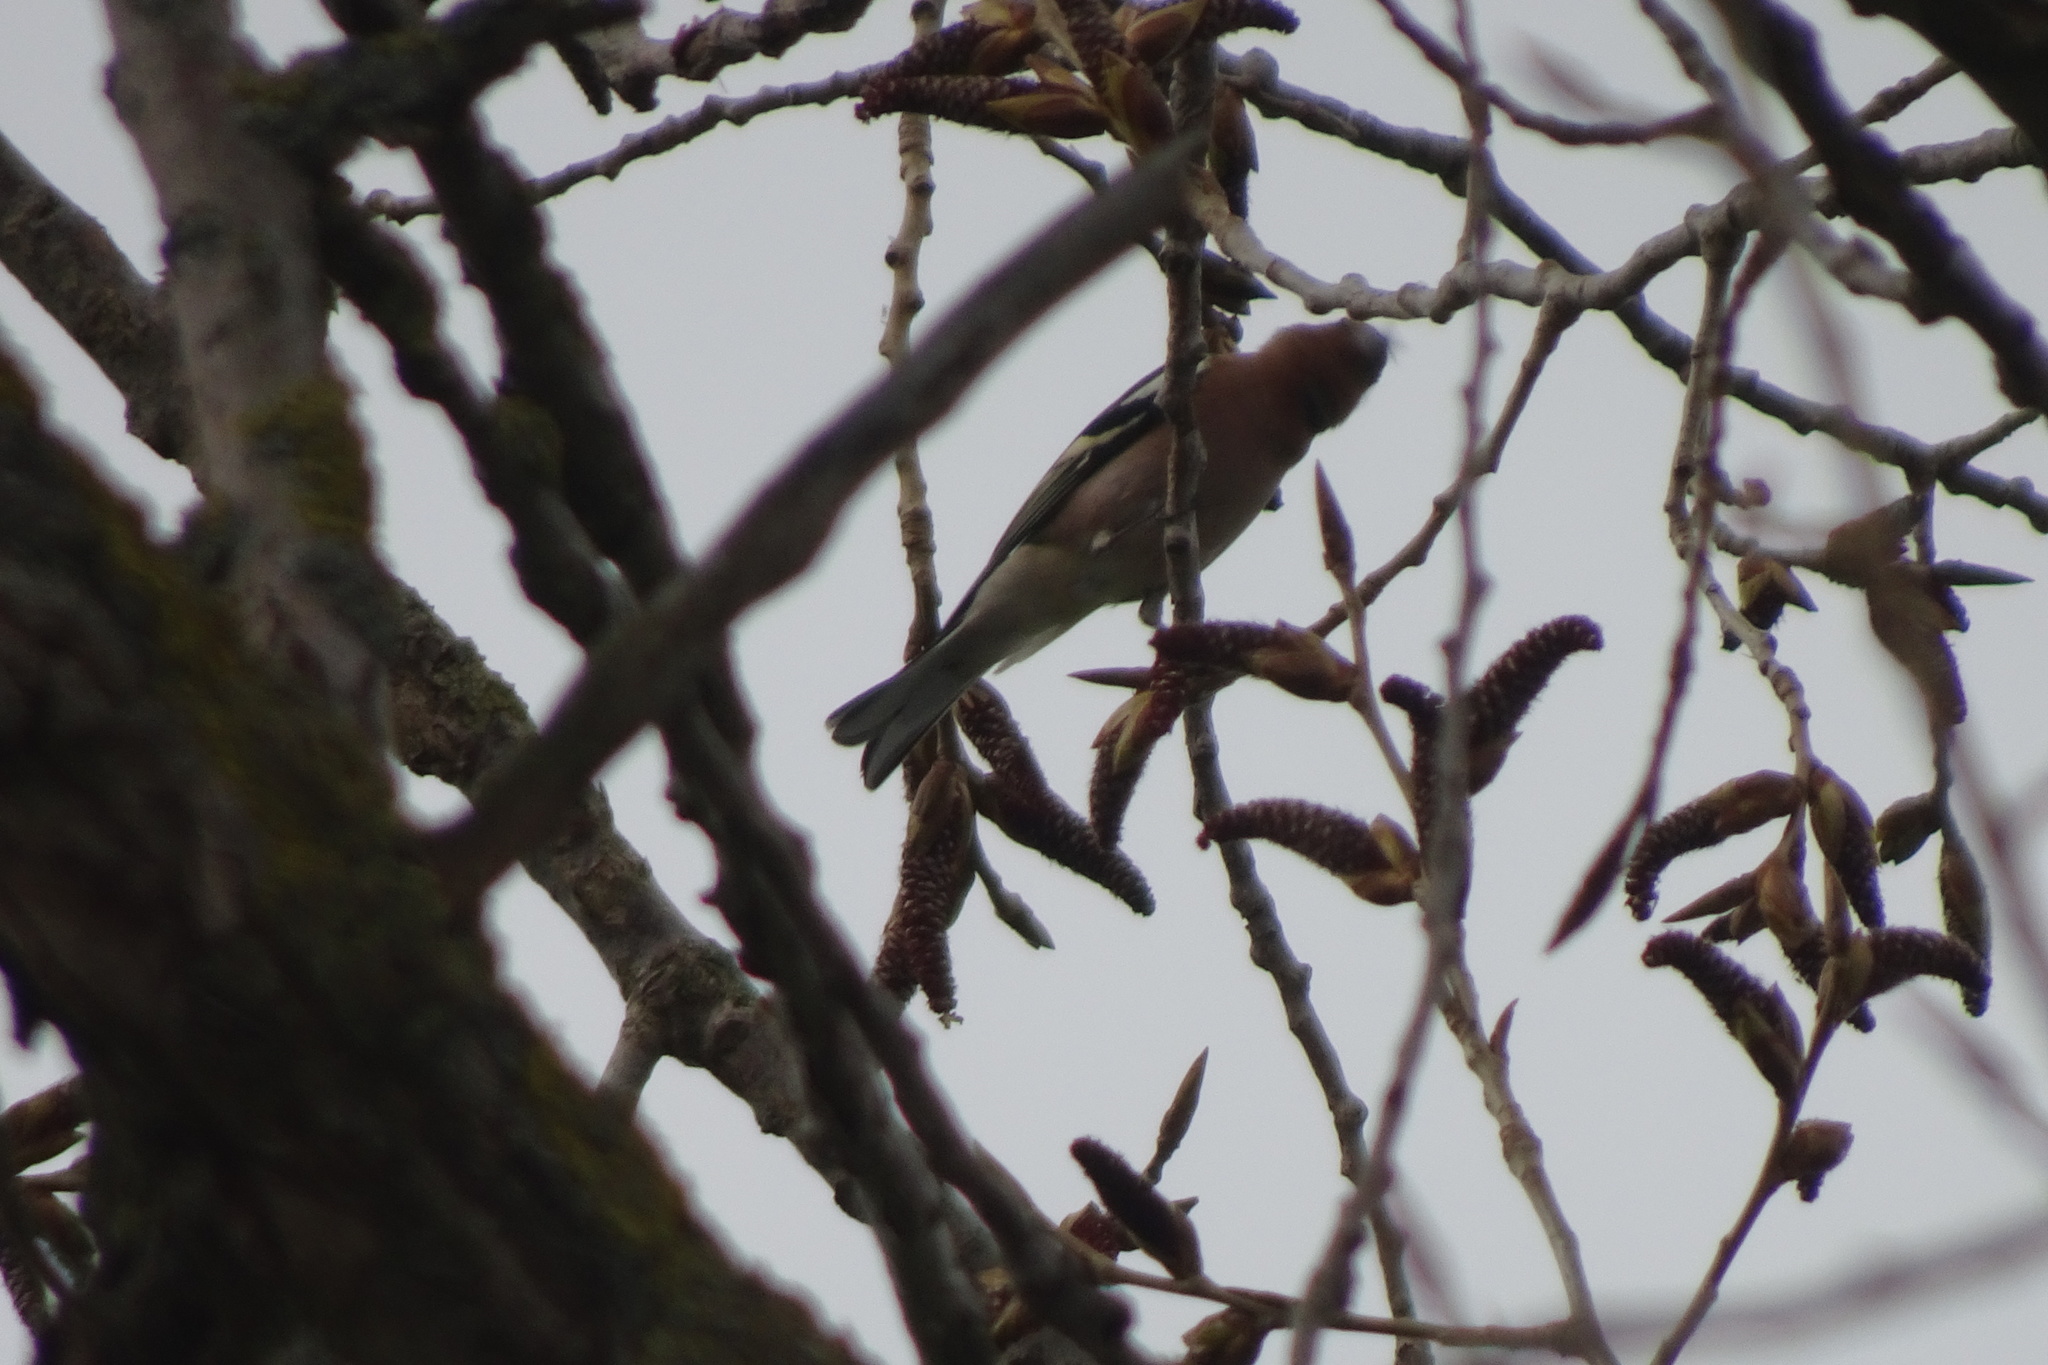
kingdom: Animalia
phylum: Chordata
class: Aves
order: Passeriformes
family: Fringillidae
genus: Fringilla
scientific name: Fringilla coelebs
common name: Common chaffinch
